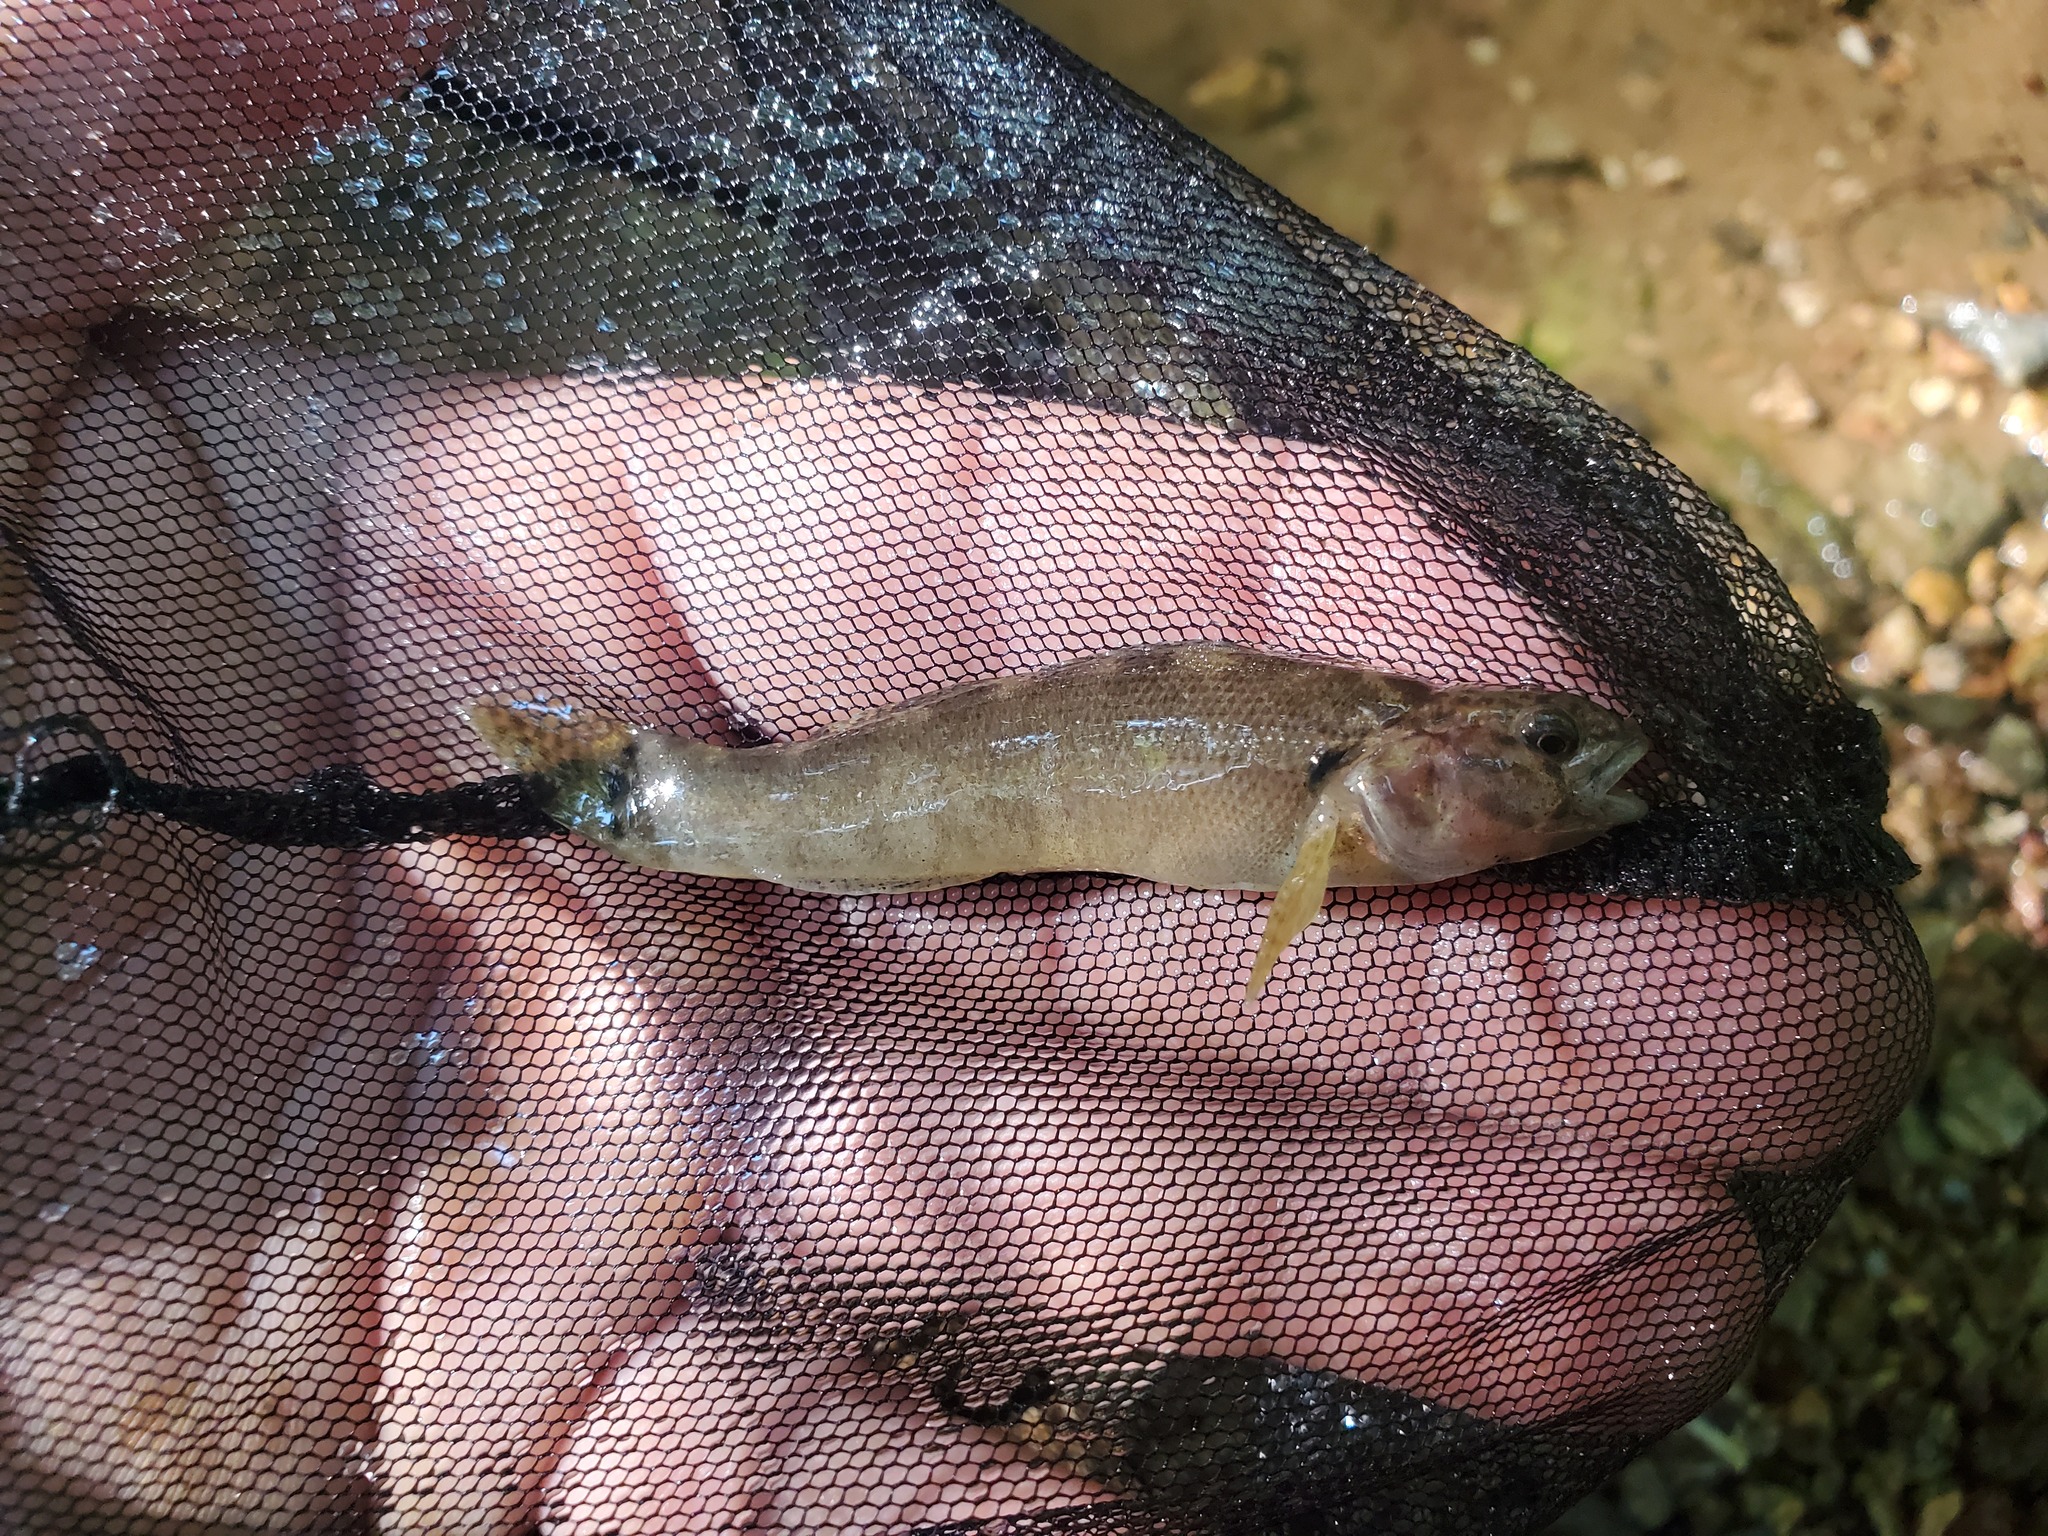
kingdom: Animalia
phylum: Chordata
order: Perciformes
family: Percidae
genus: Etheostoma
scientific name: Etheostoma crossopterum
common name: Fringed darter
